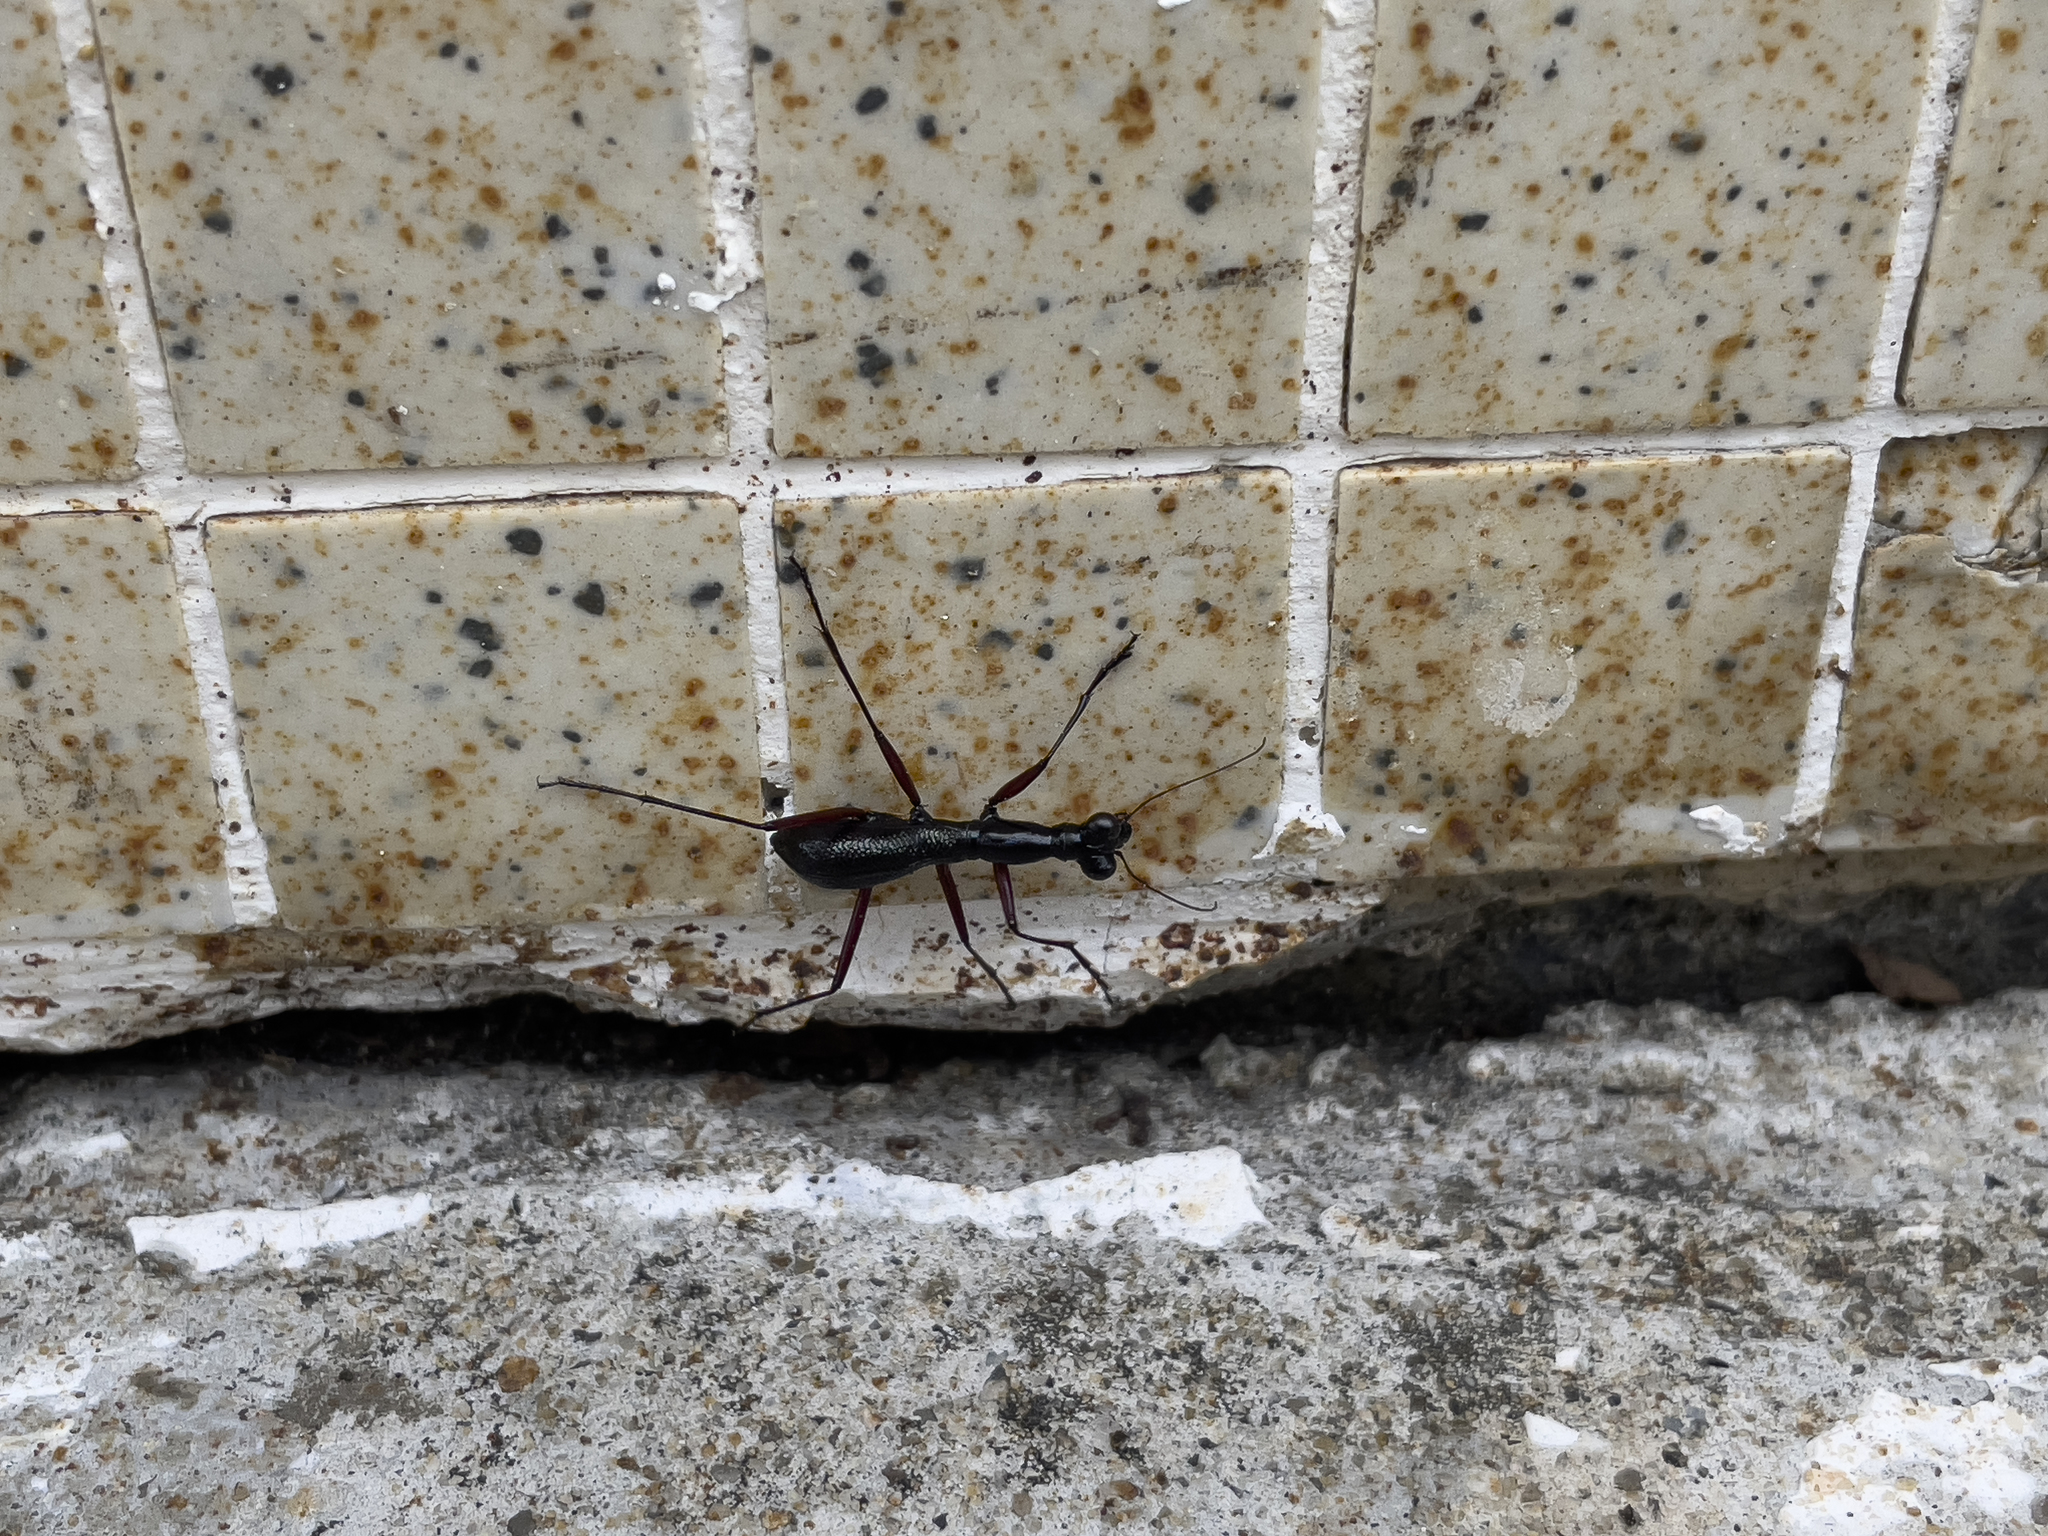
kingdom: Animalia
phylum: Arthropoda
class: Insecta
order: Coleoptera
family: Carabidae
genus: Tricondyla
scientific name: Tricondyla pulchripes
